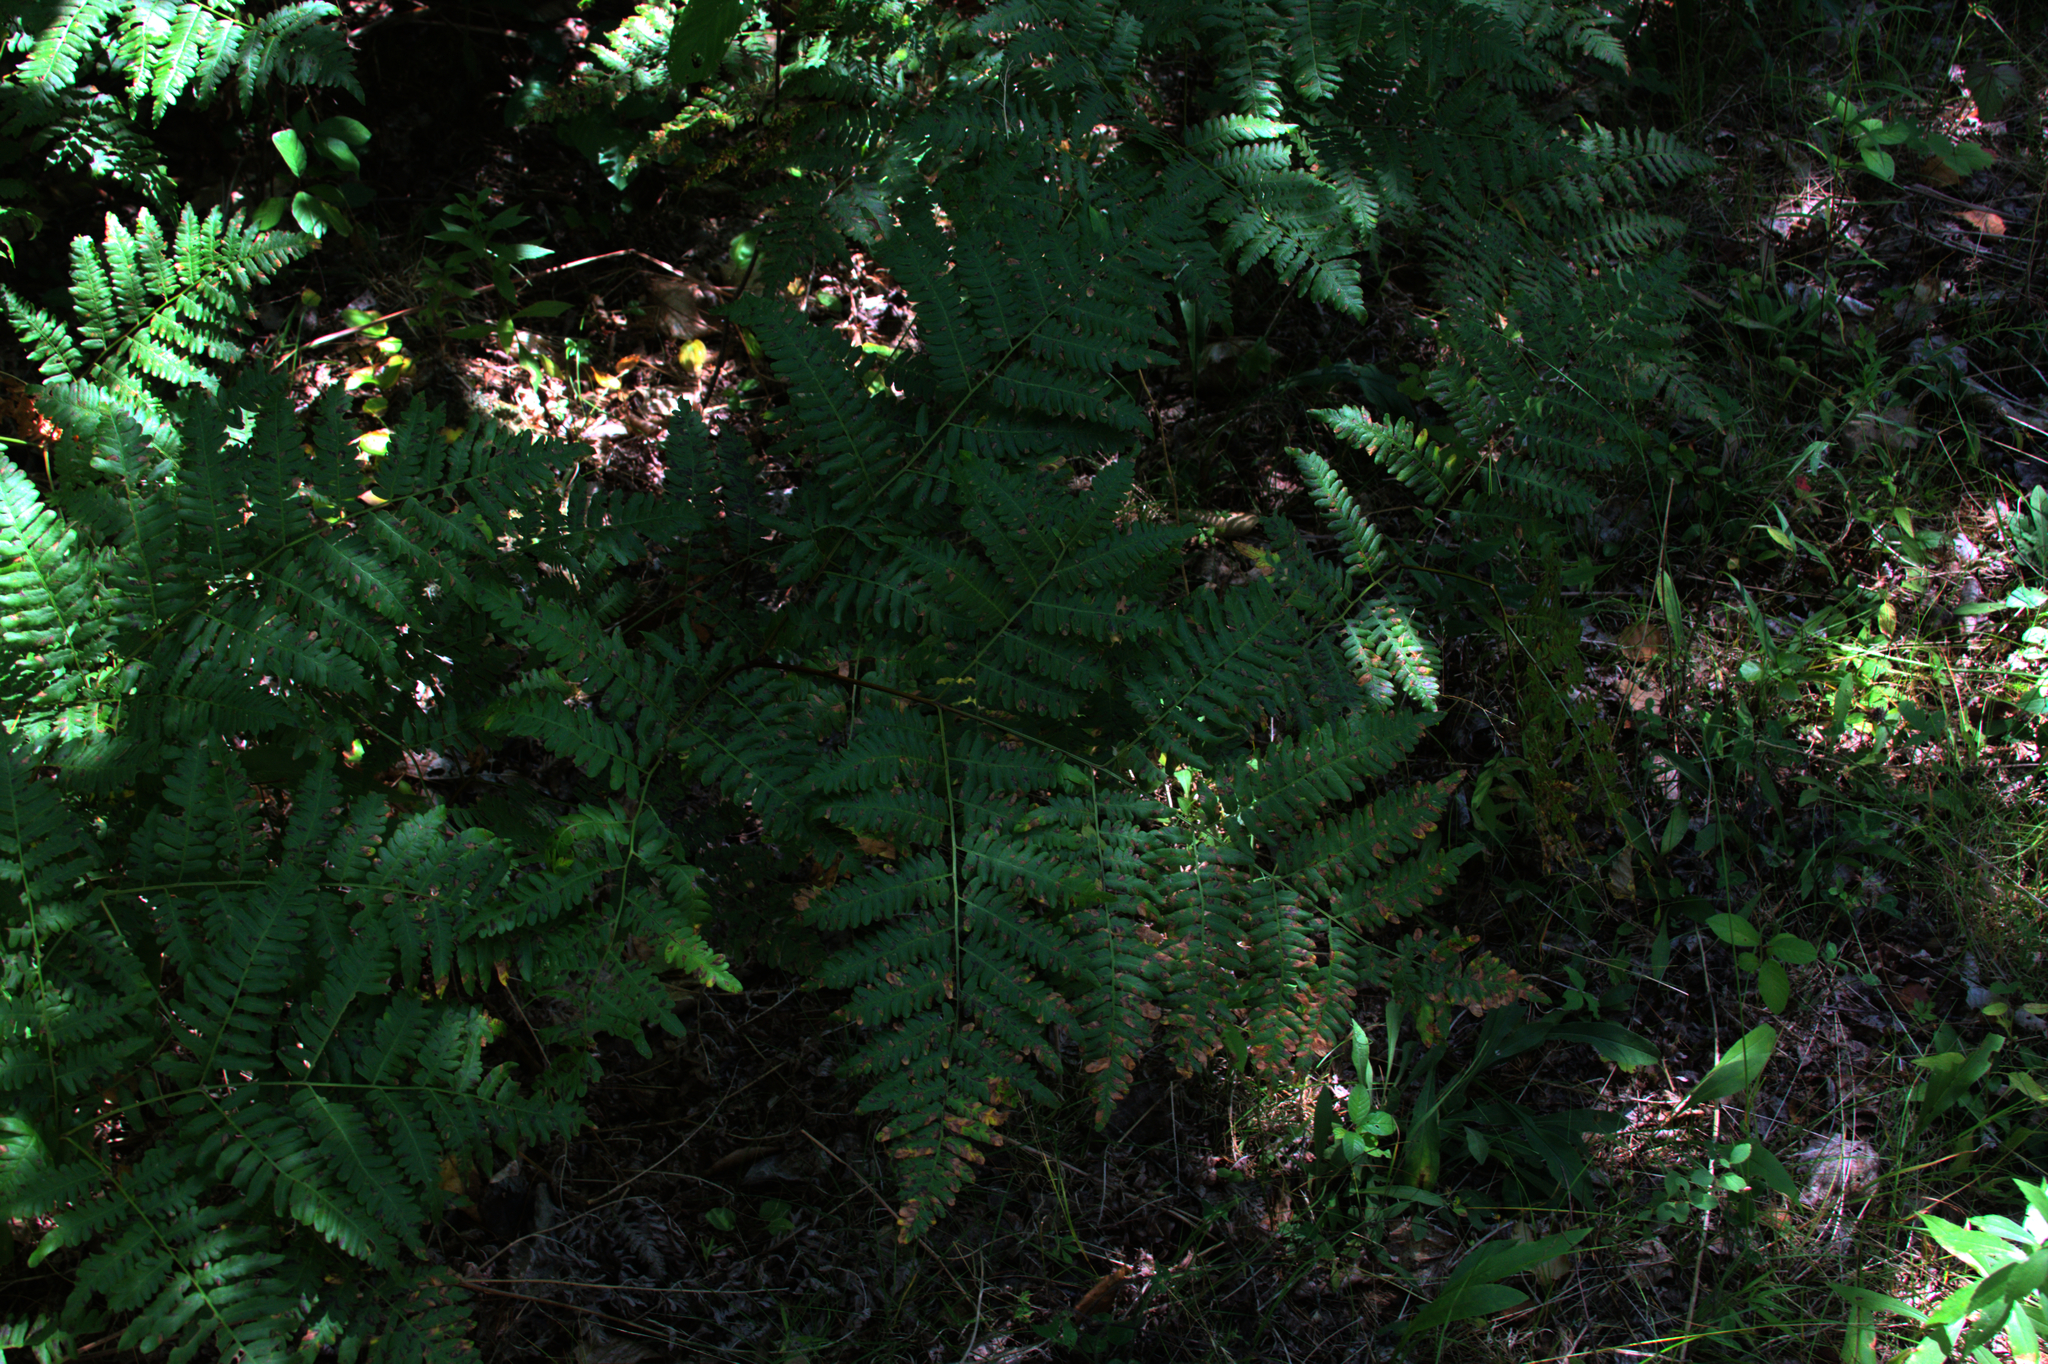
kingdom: Plantae
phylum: Tracheophyta
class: Polypodiopsida
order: Polypodiales
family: Dennstaedtiaceae
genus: Pteridium
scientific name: Pteridium aquilinum
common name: Bracken
